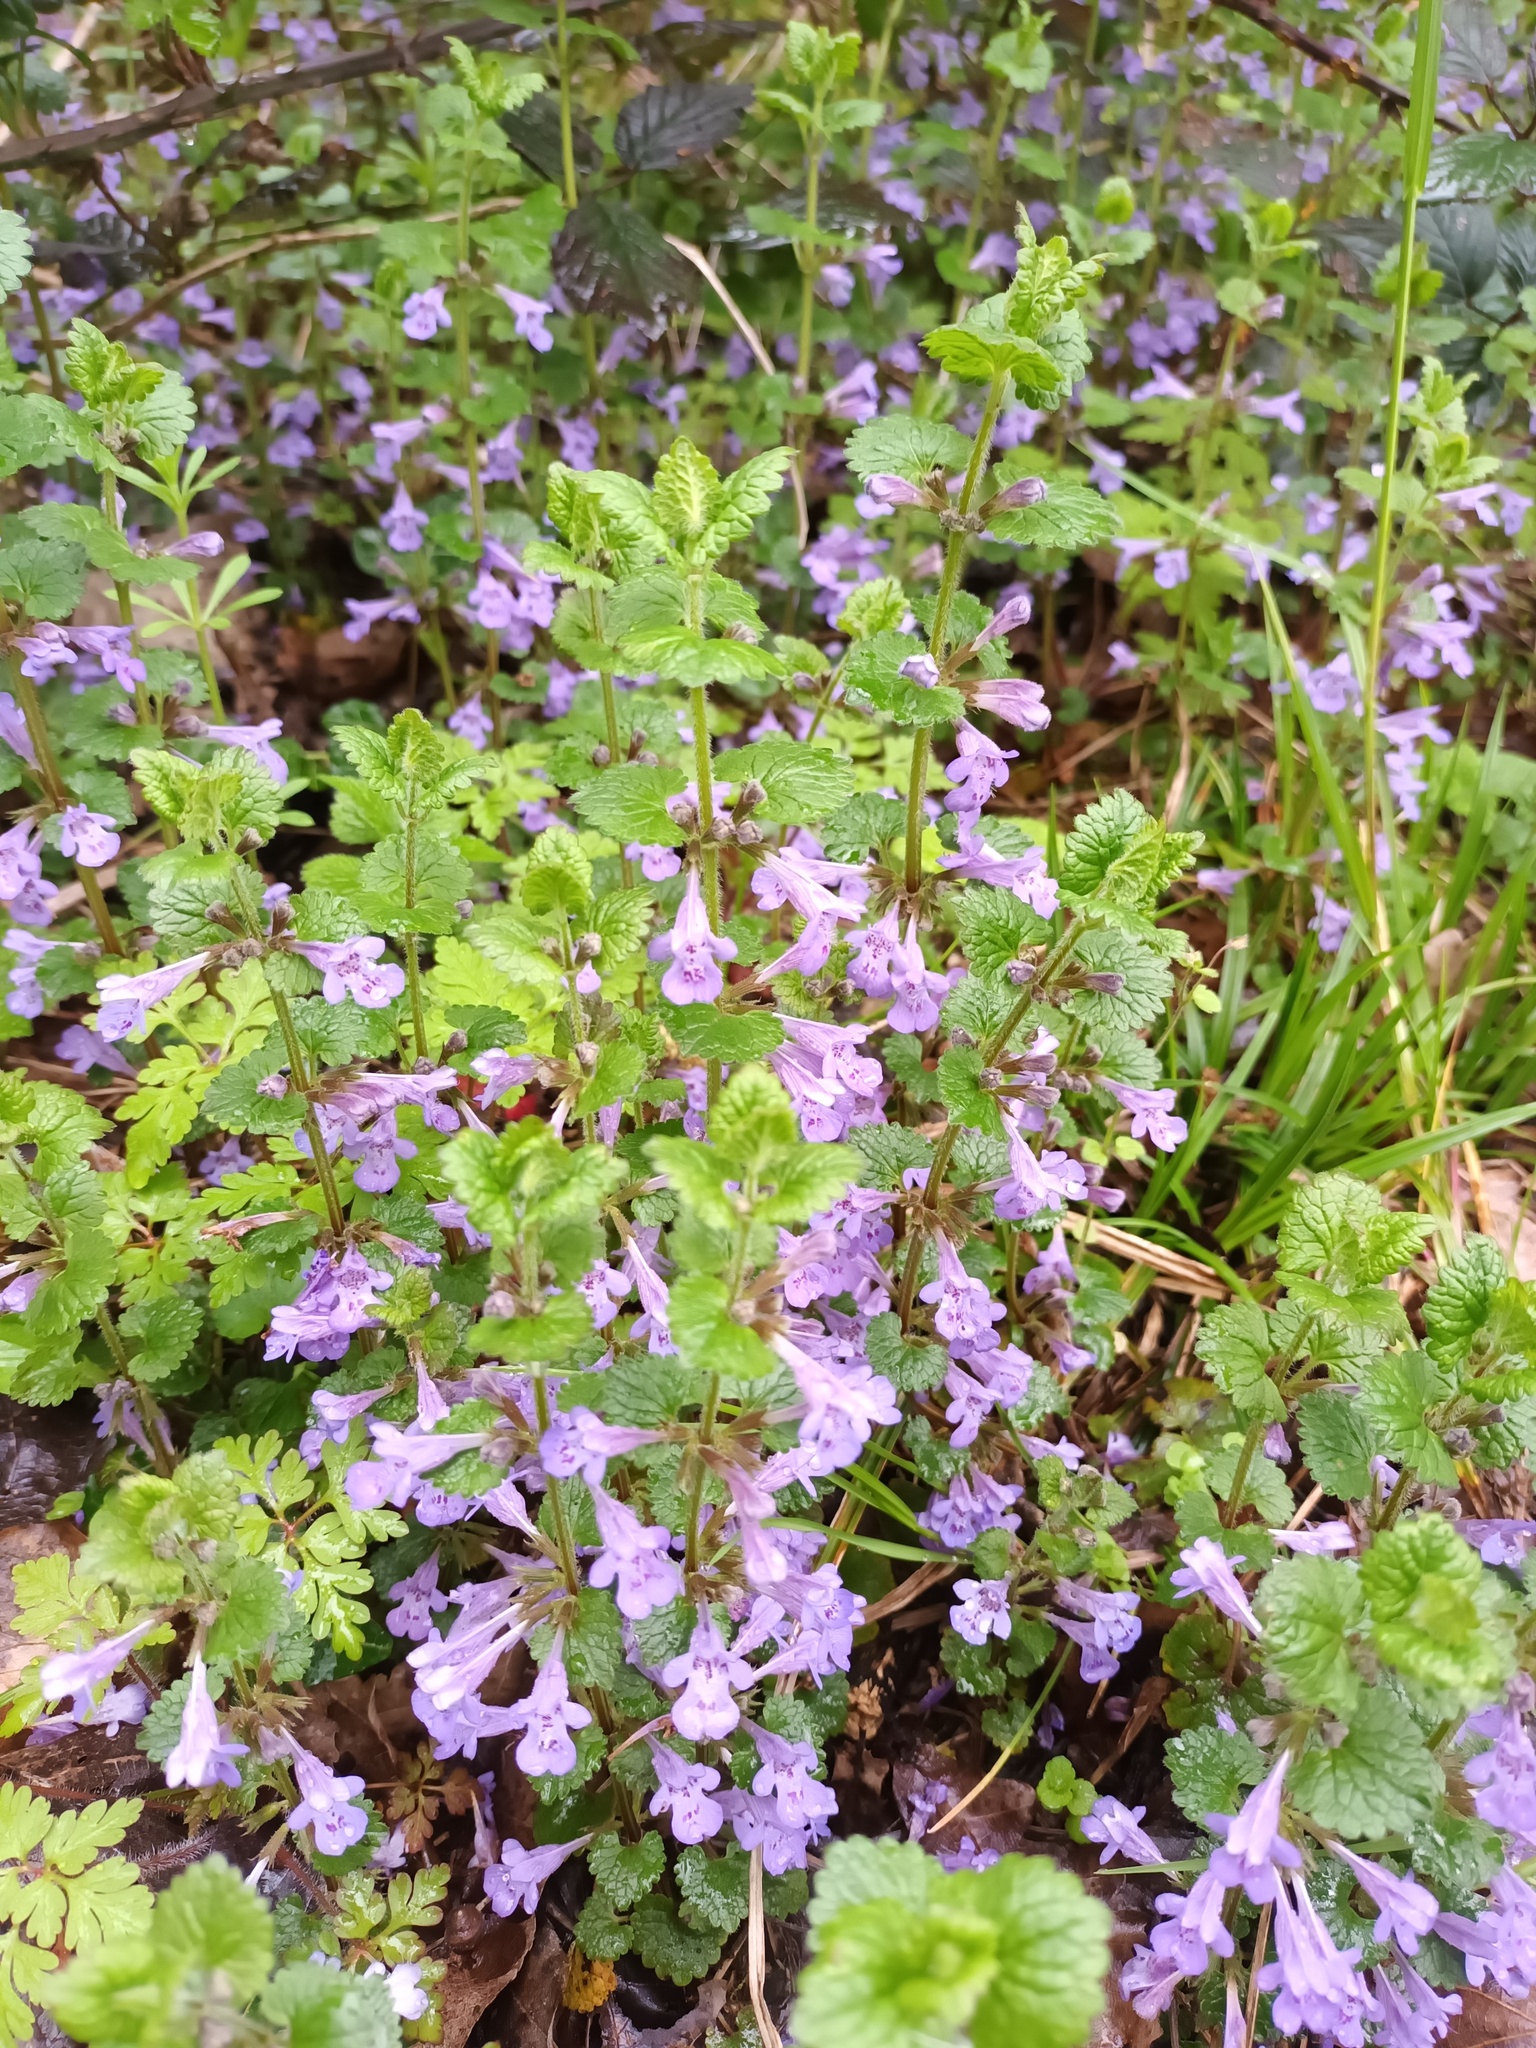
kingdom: Plantae
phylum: Tracheophyta
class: Magnoliopsida
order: Lamiales
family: Lamiaceae
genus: Glechoma
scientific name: Glechoma hederacea
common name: Ground ivy
